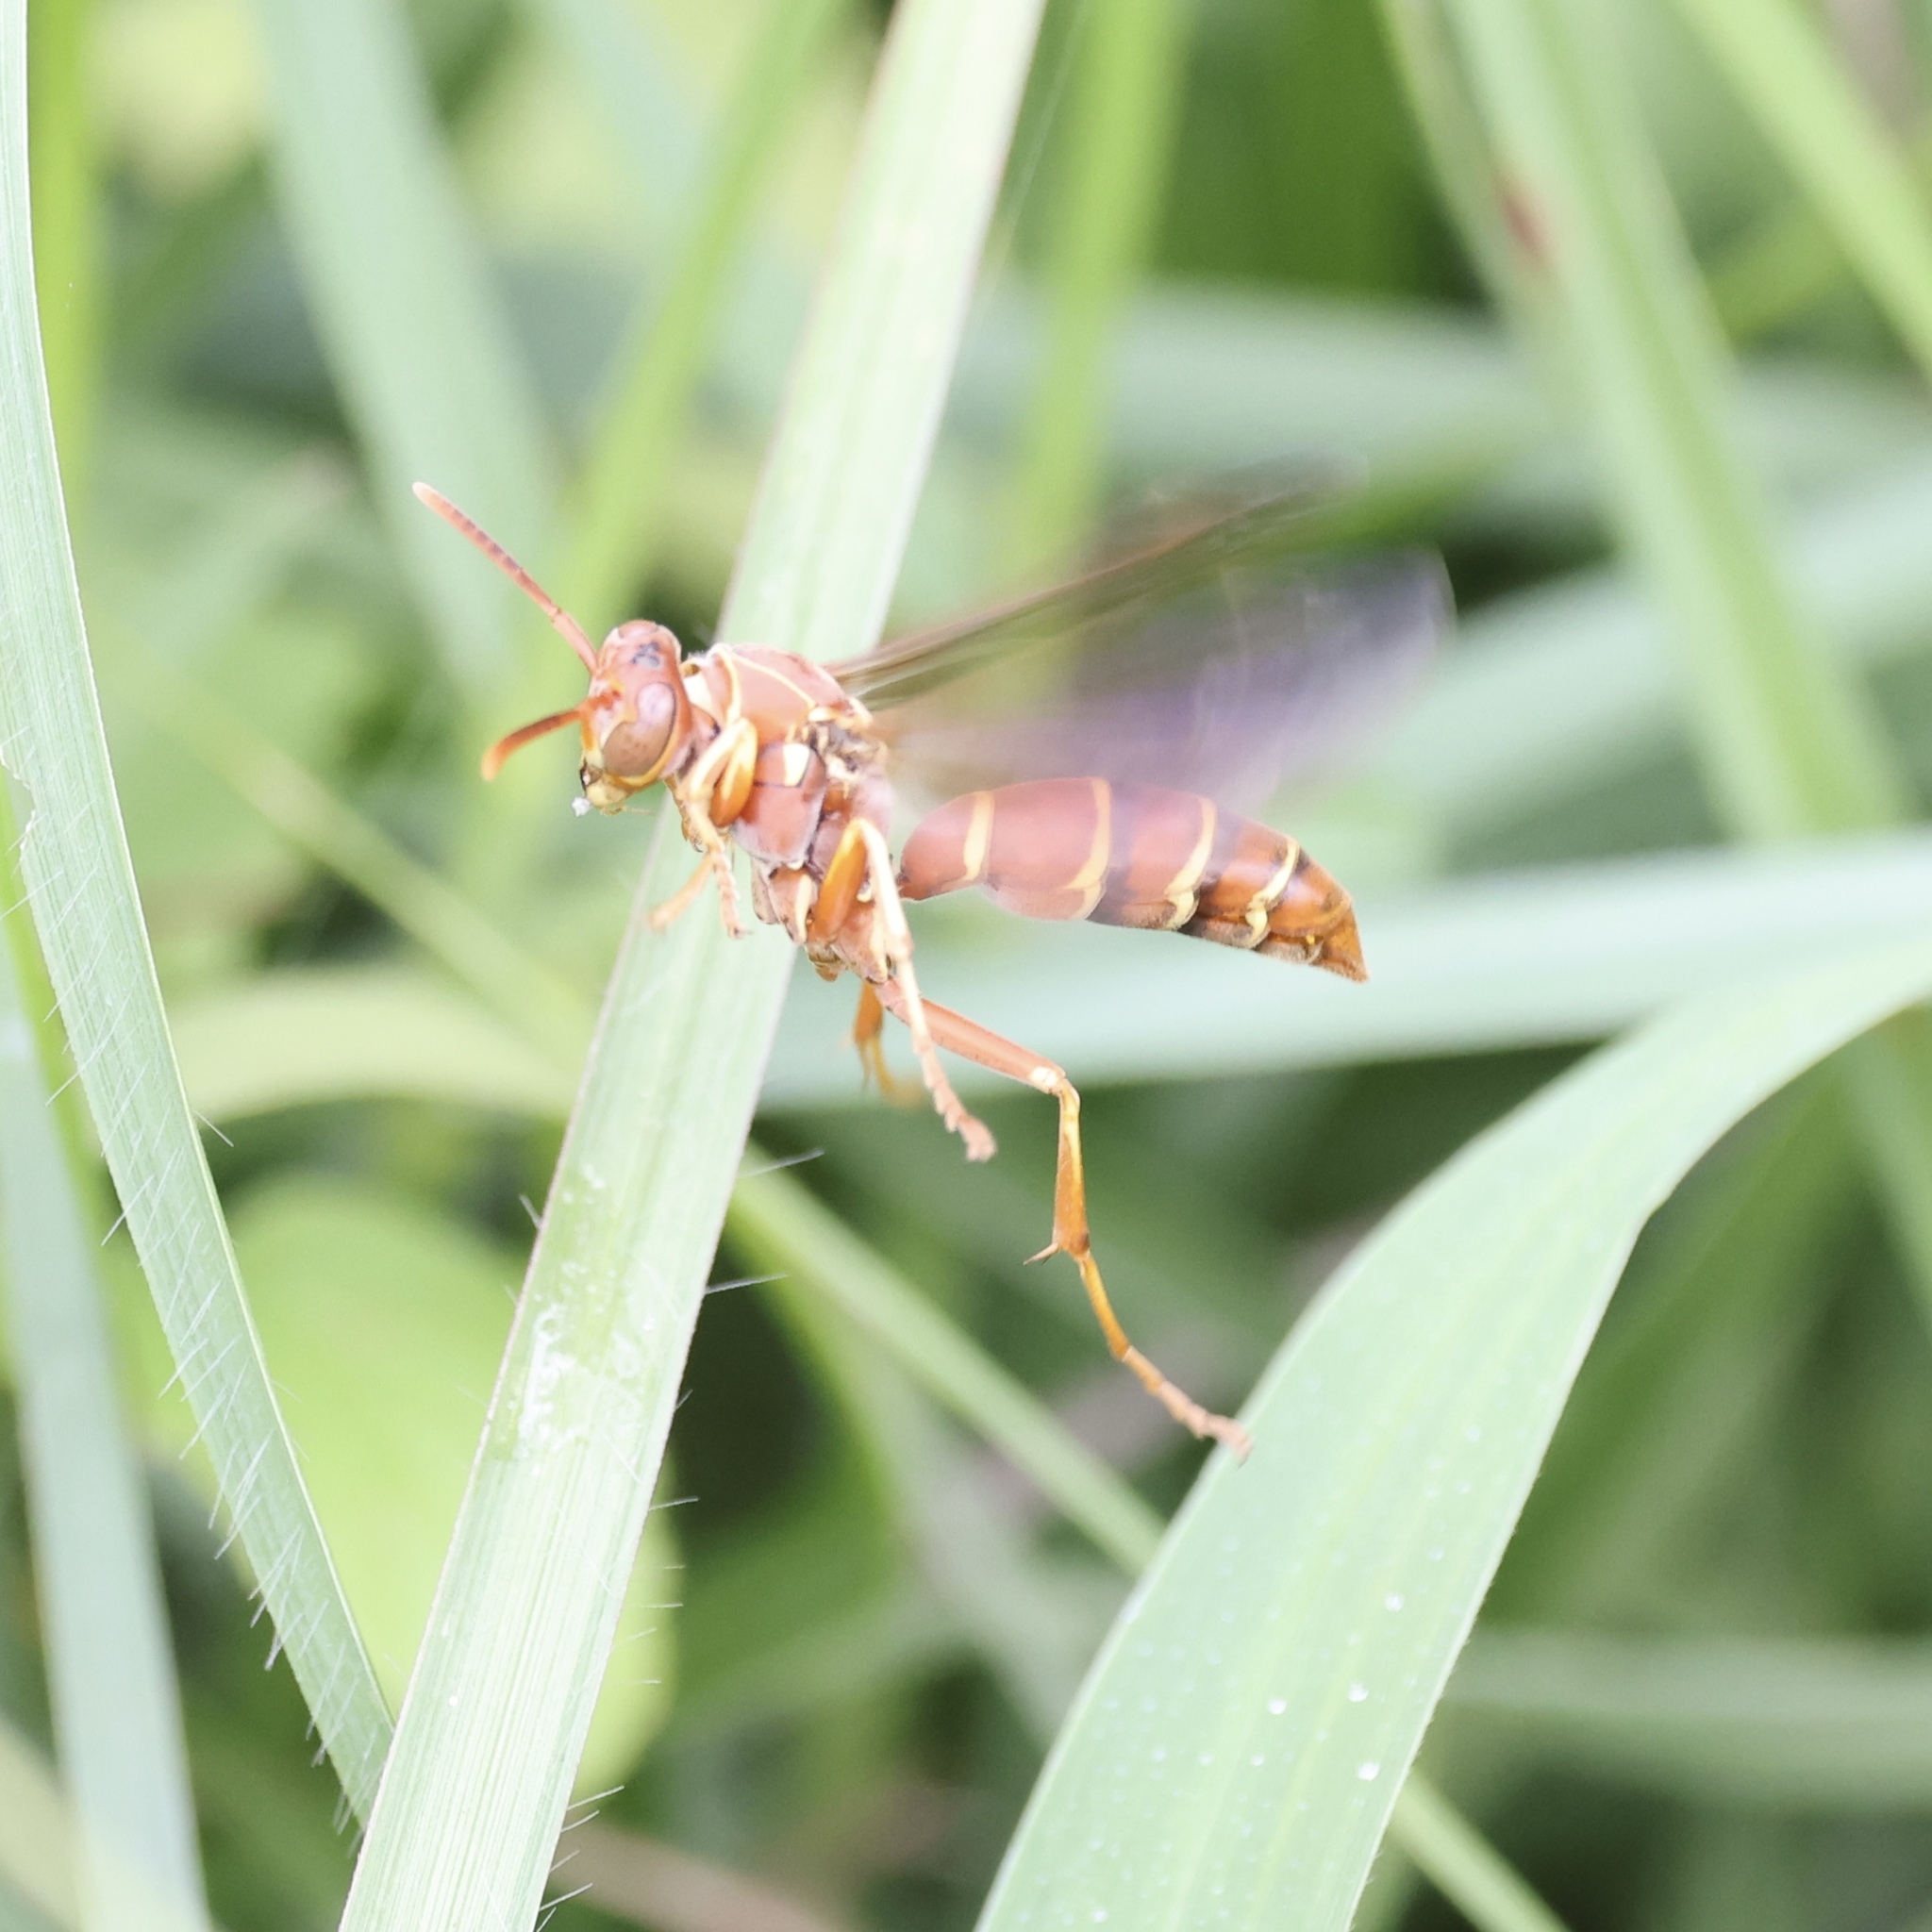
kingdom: Animalia
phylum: Arthropoda
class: Insecta
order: Hymenoptera
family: Eumenidae
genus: Polistes
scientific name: Polistes bellicosus
